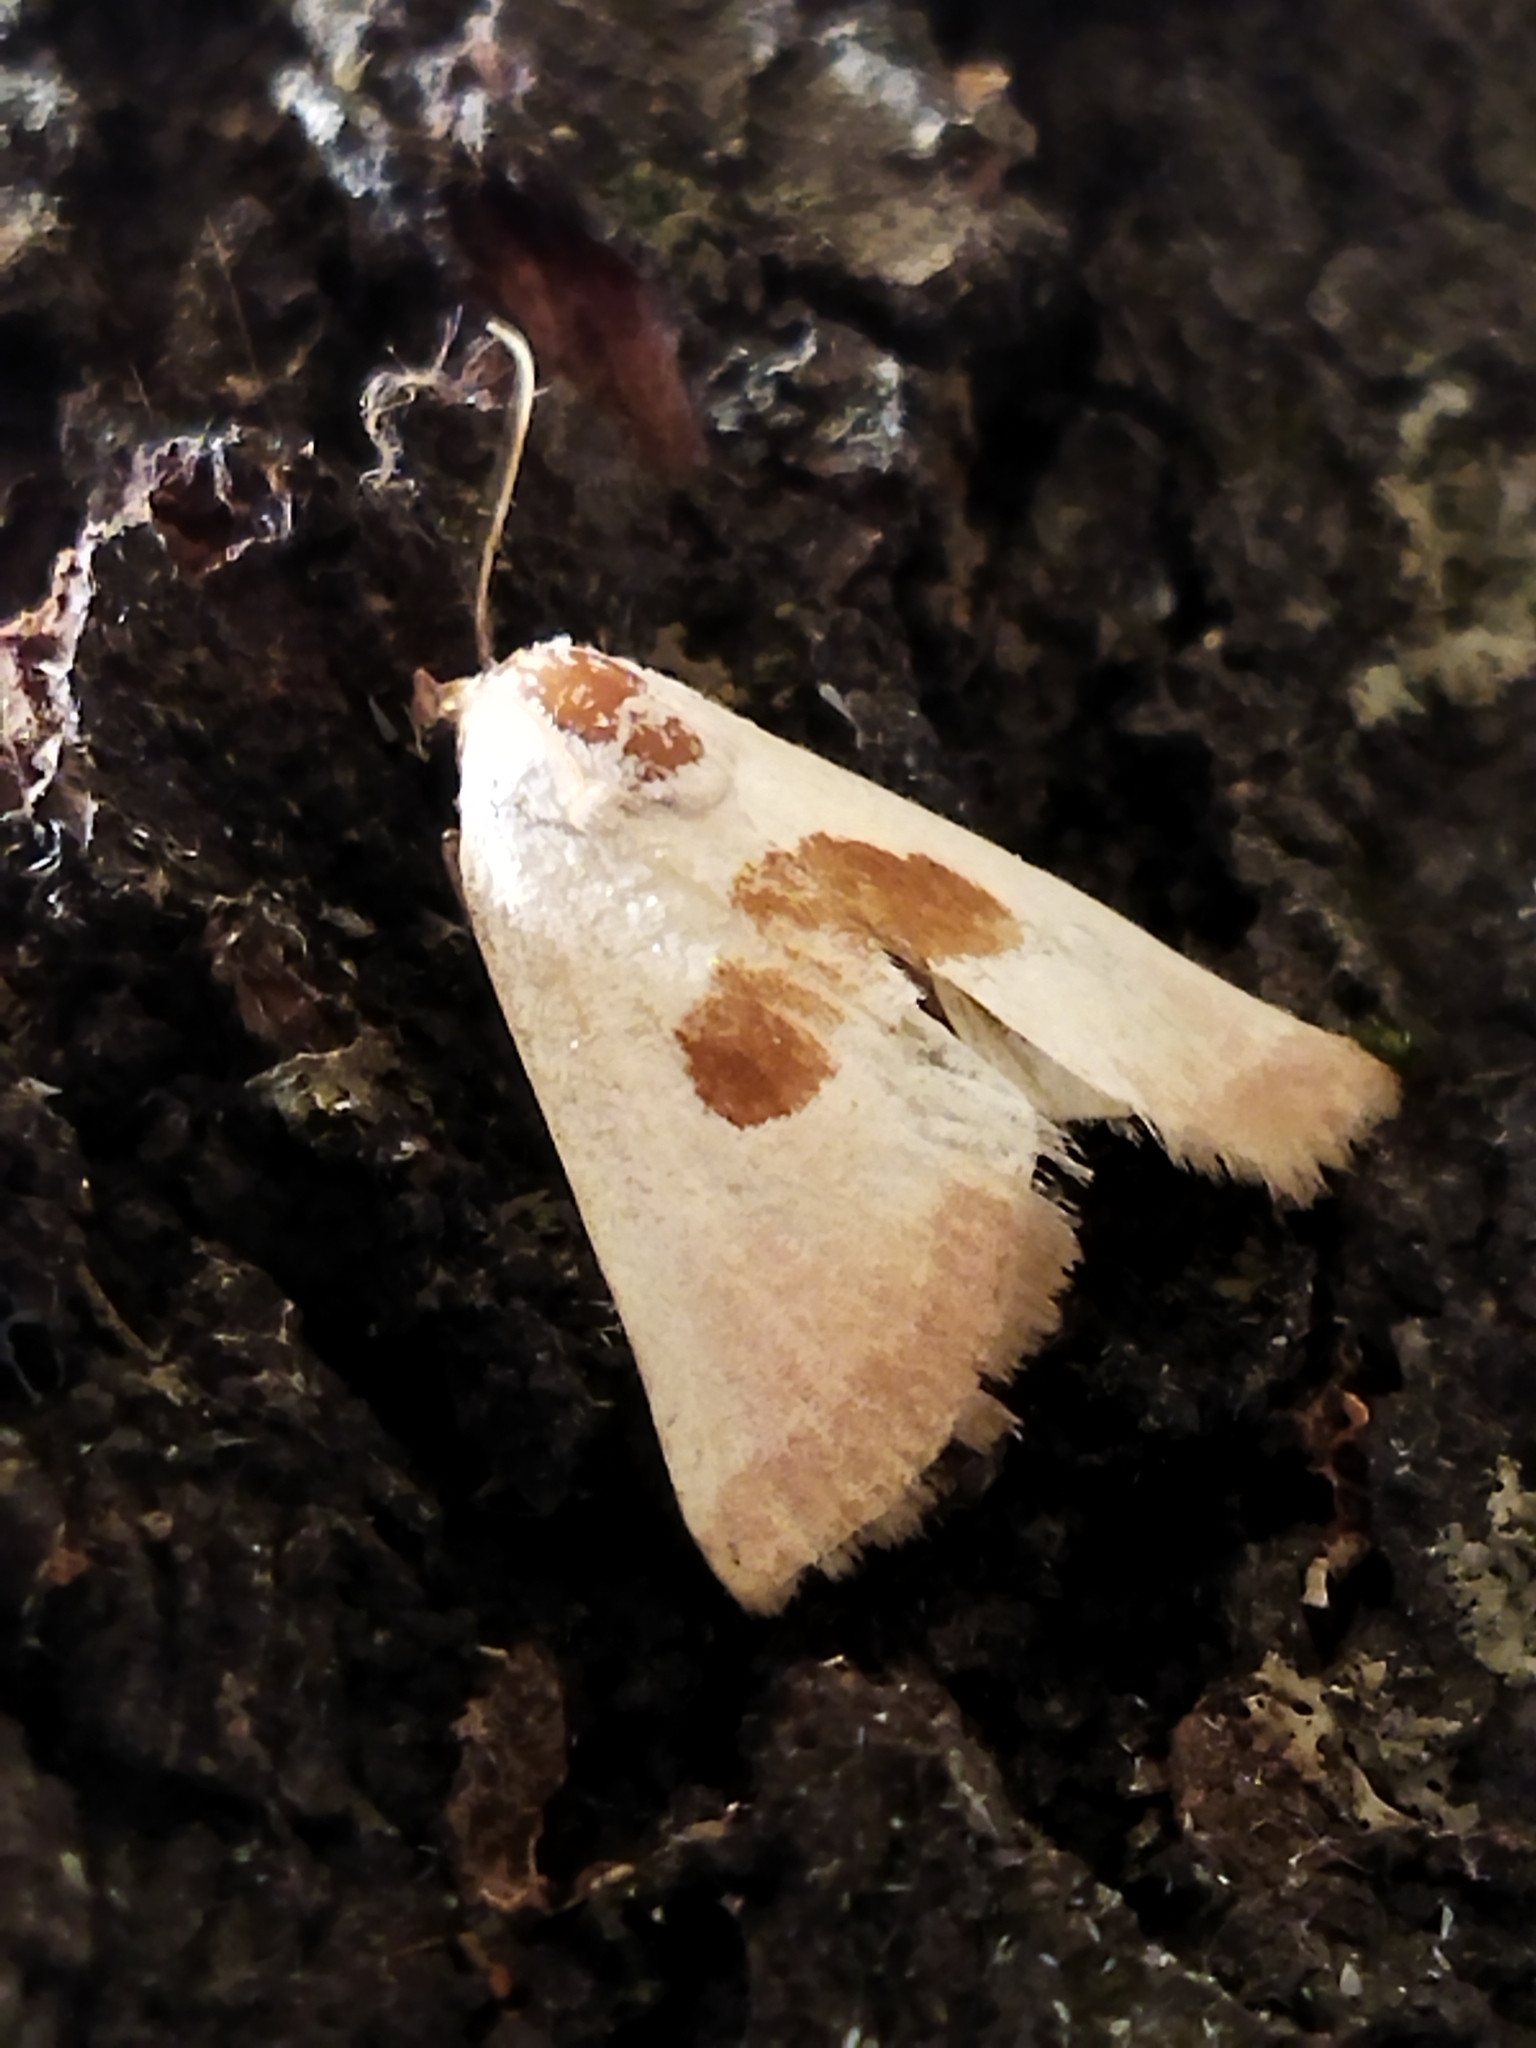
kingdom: Animalia
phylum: Arthropoda
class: Insecta
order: Lepidoptera
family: Noctuidae
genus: Calymma
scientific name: Calymma communimacula
